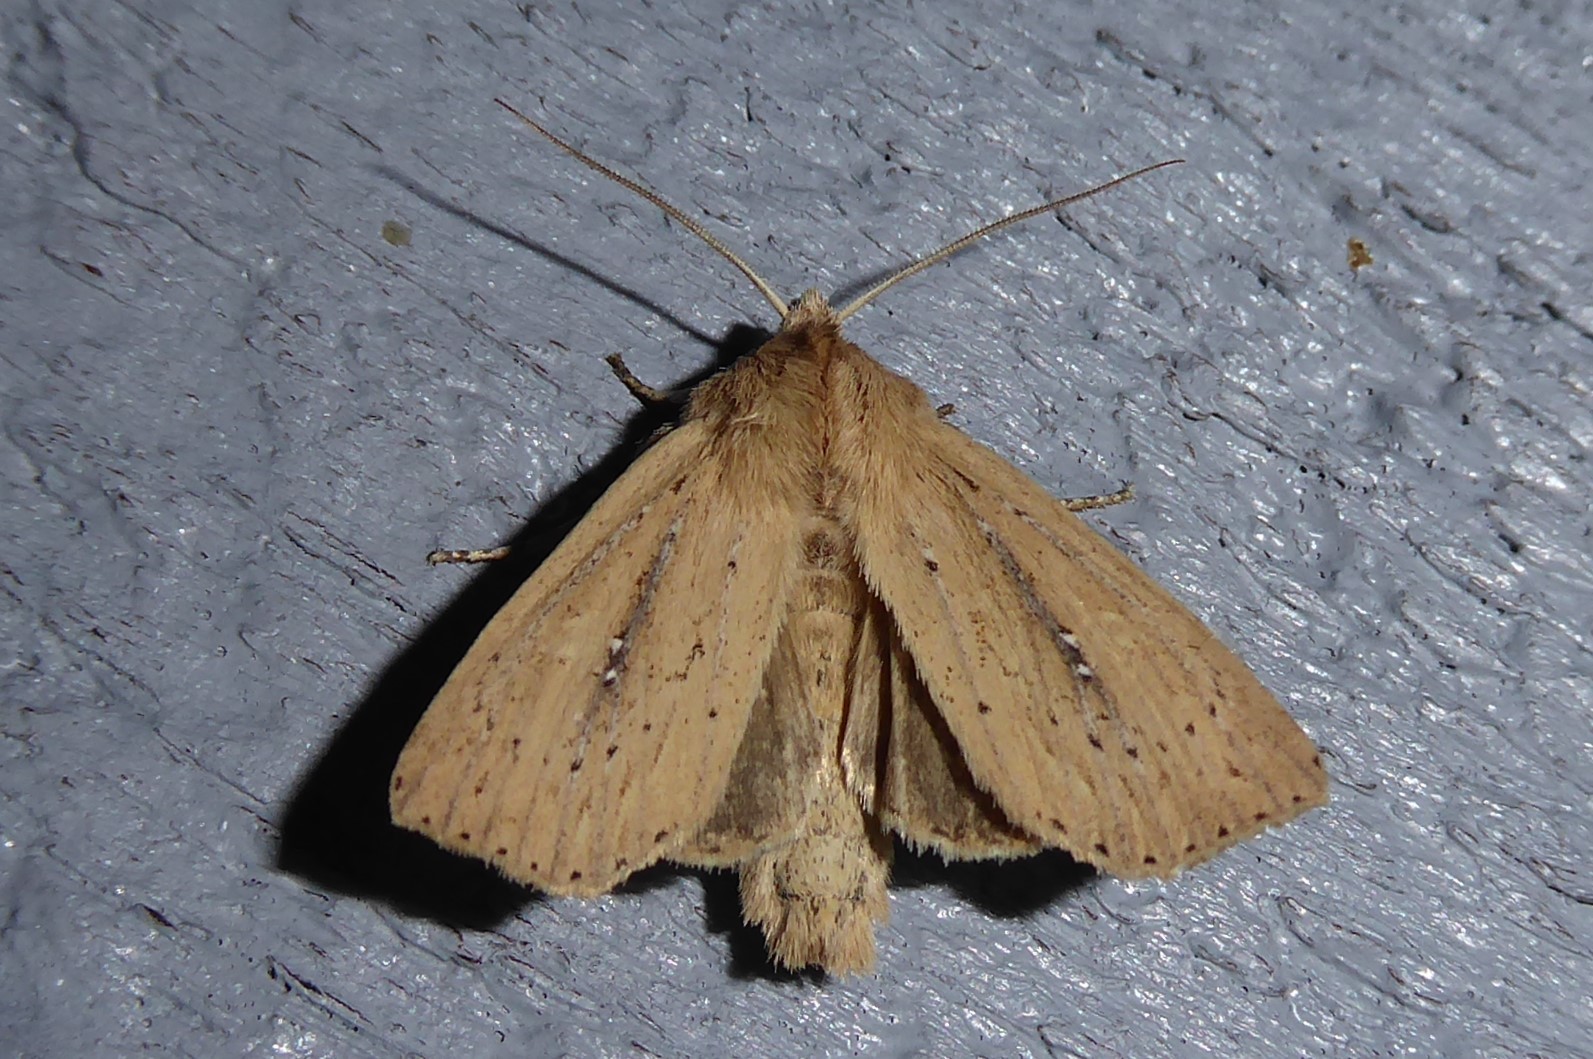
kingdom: Animalia
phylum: Arthropoda
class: Insecta
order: Lepidoptera
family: Noctuidae
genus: Ichneutica
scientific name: Ichneutica
